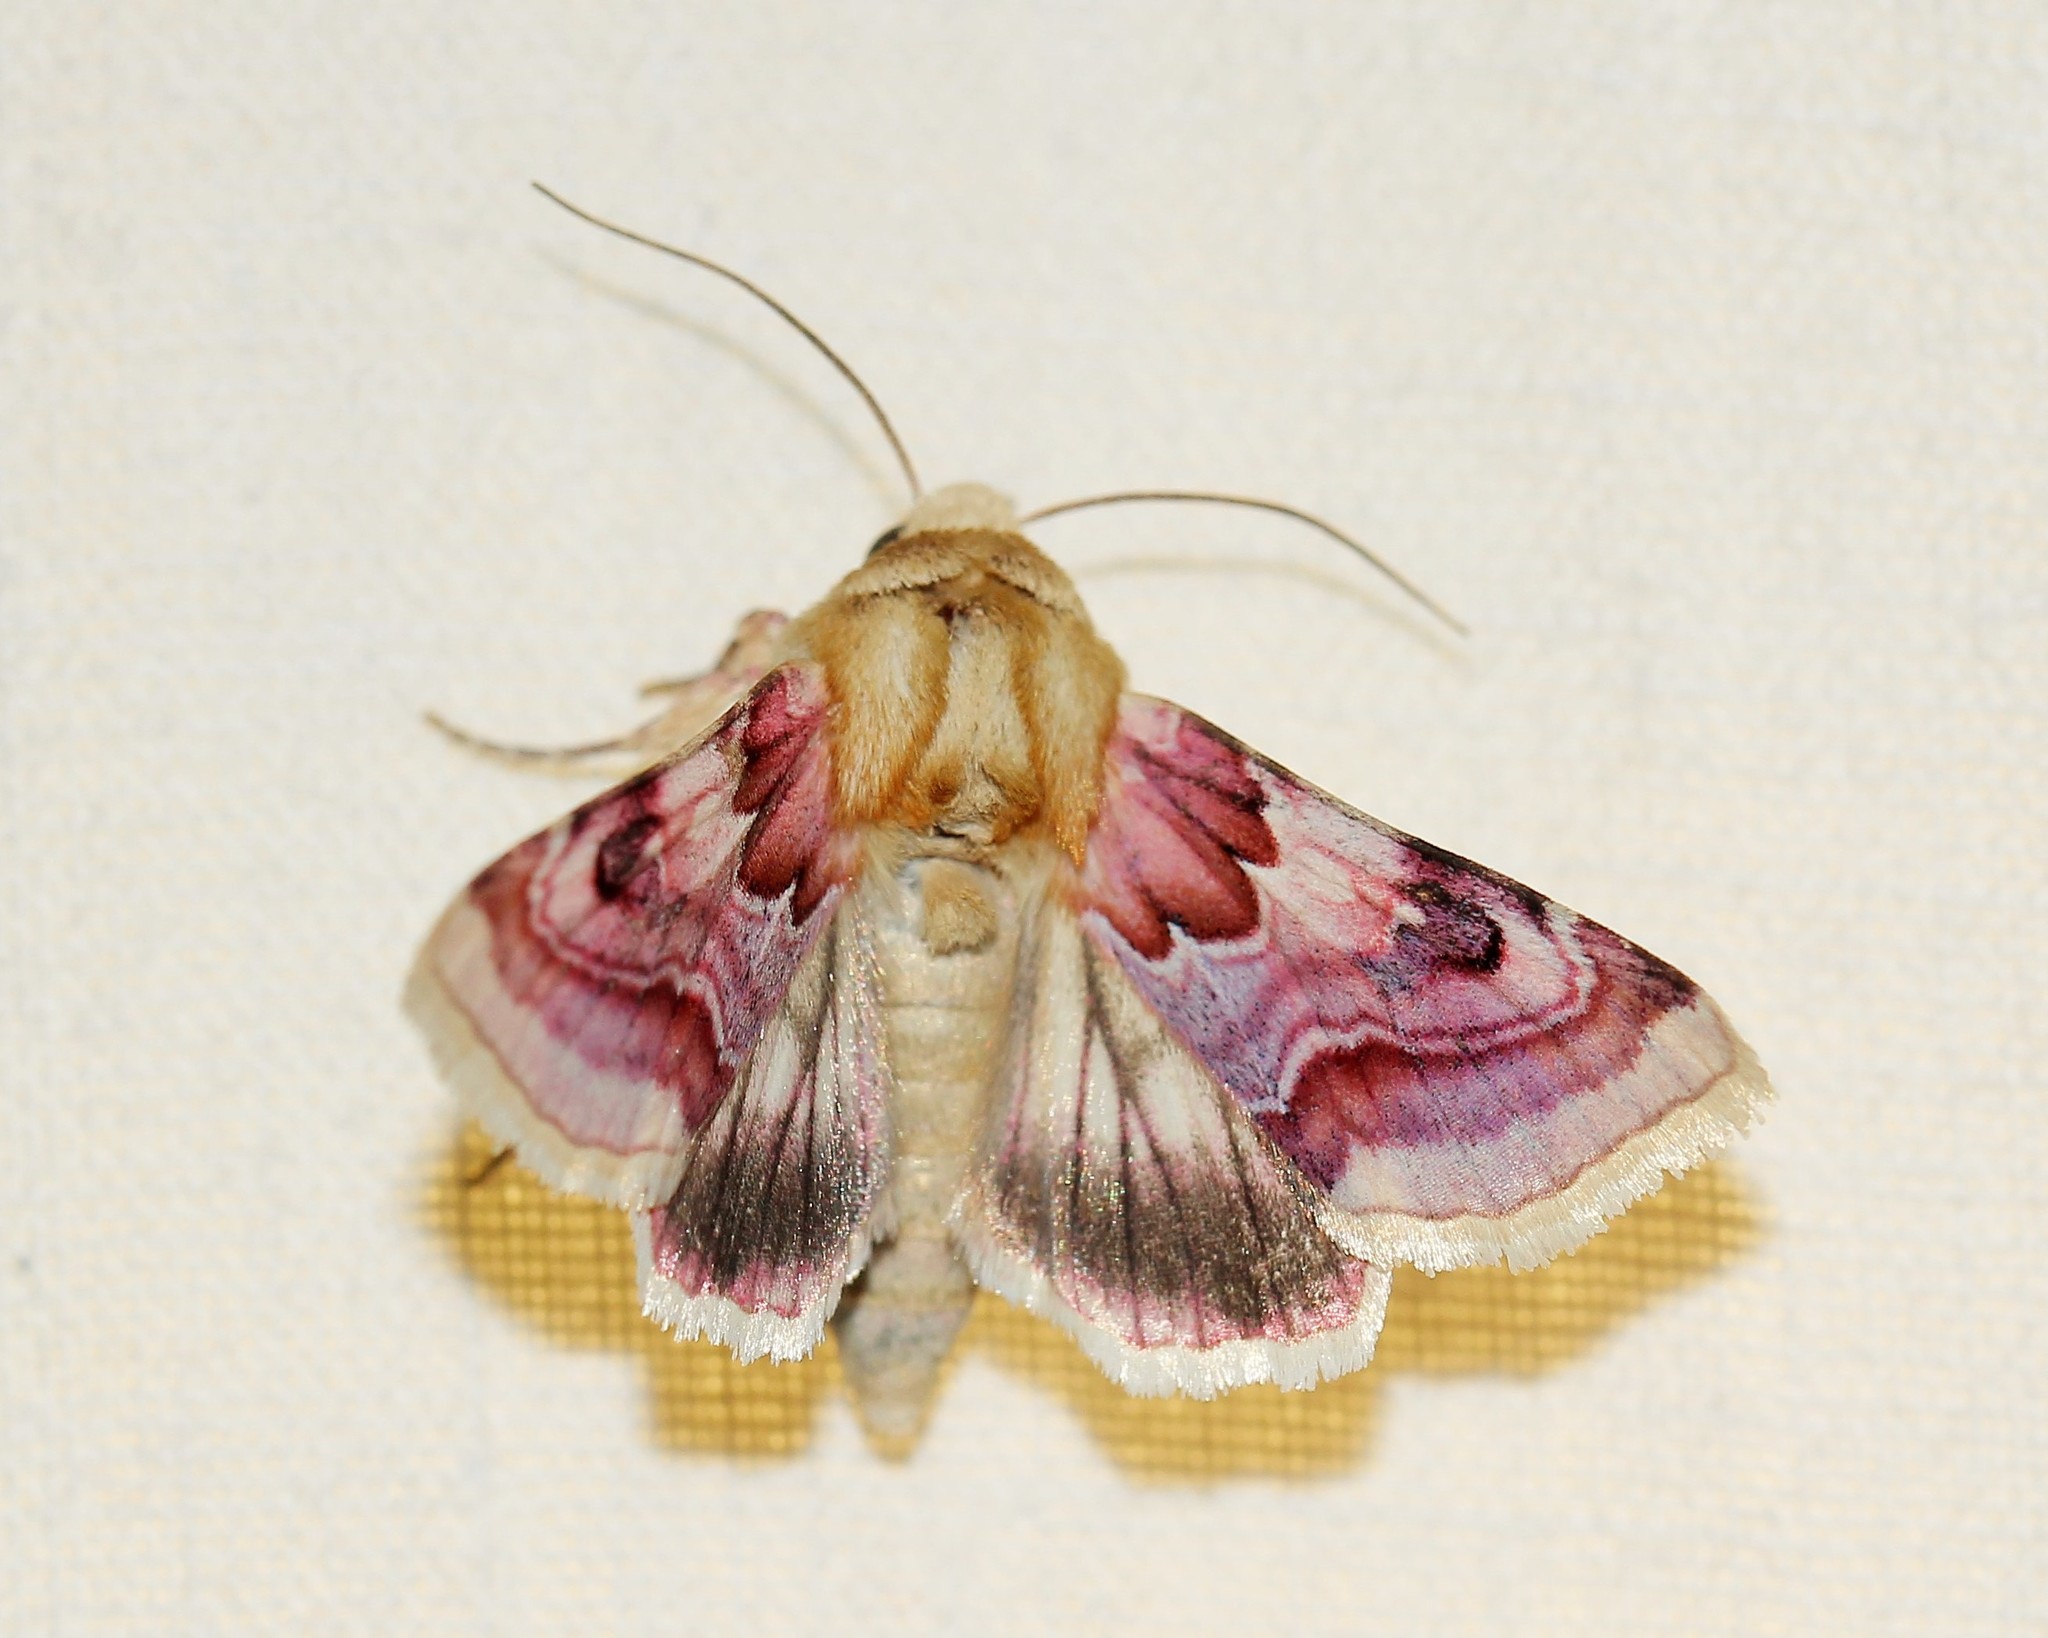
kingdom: Animalia
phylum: Arthropoda
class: Insecta
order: Lepidoptera
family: Noctuidae
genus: Periphanes
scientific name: Periphanes delphinii
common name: Pease blossom
